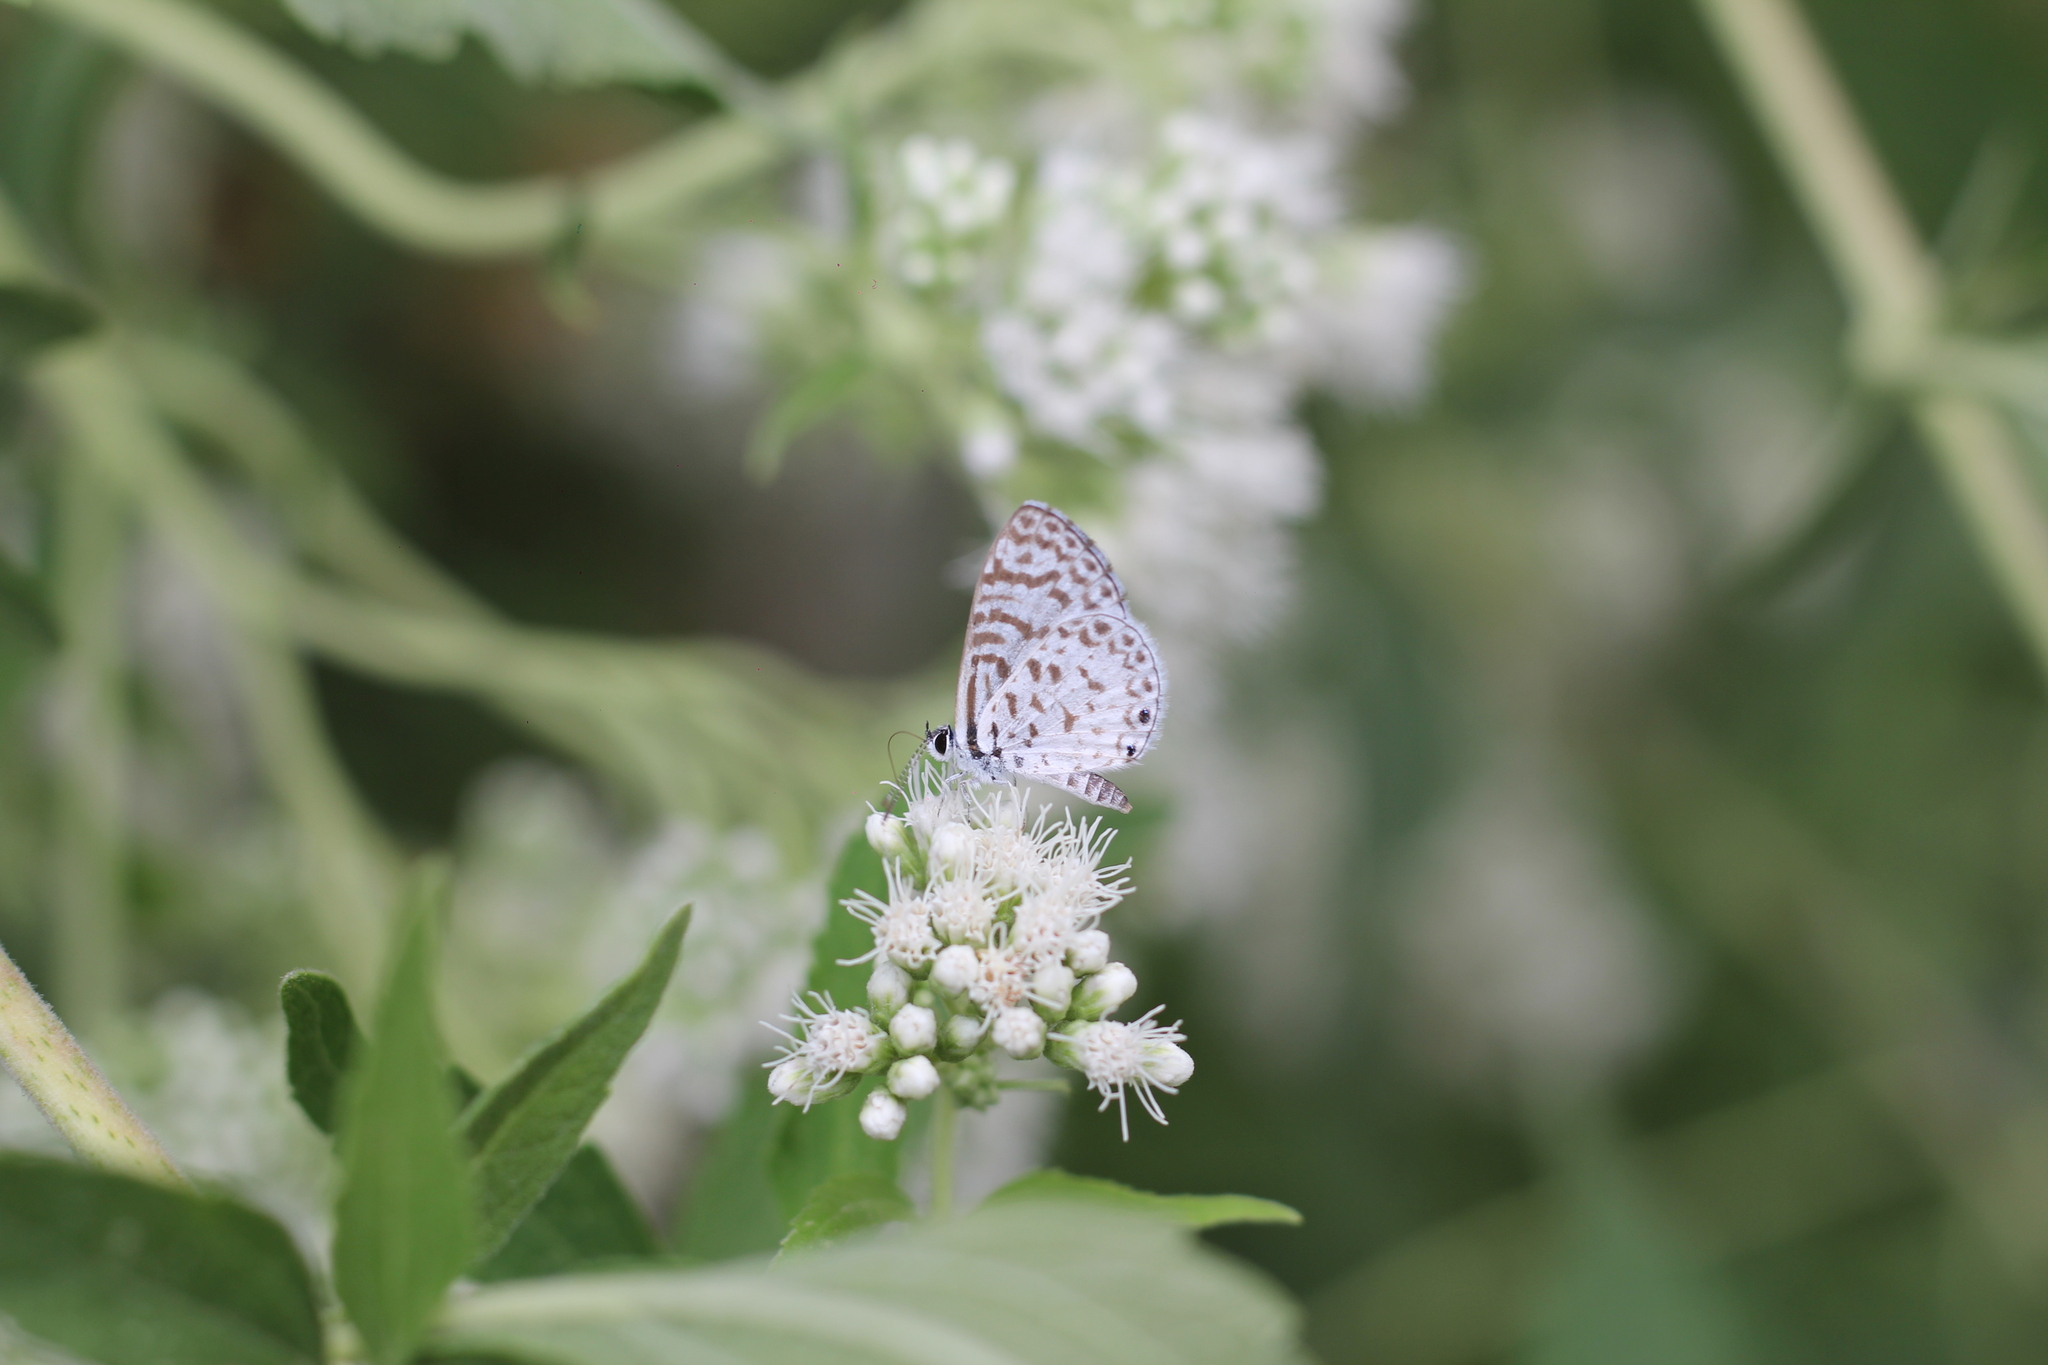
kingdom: Animalia
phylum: Arthropoda
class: Insecta
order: Lepidoptera
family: Lycaenidae
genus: Leptotes
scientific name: Leptotes cassius
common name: Cassius blue
